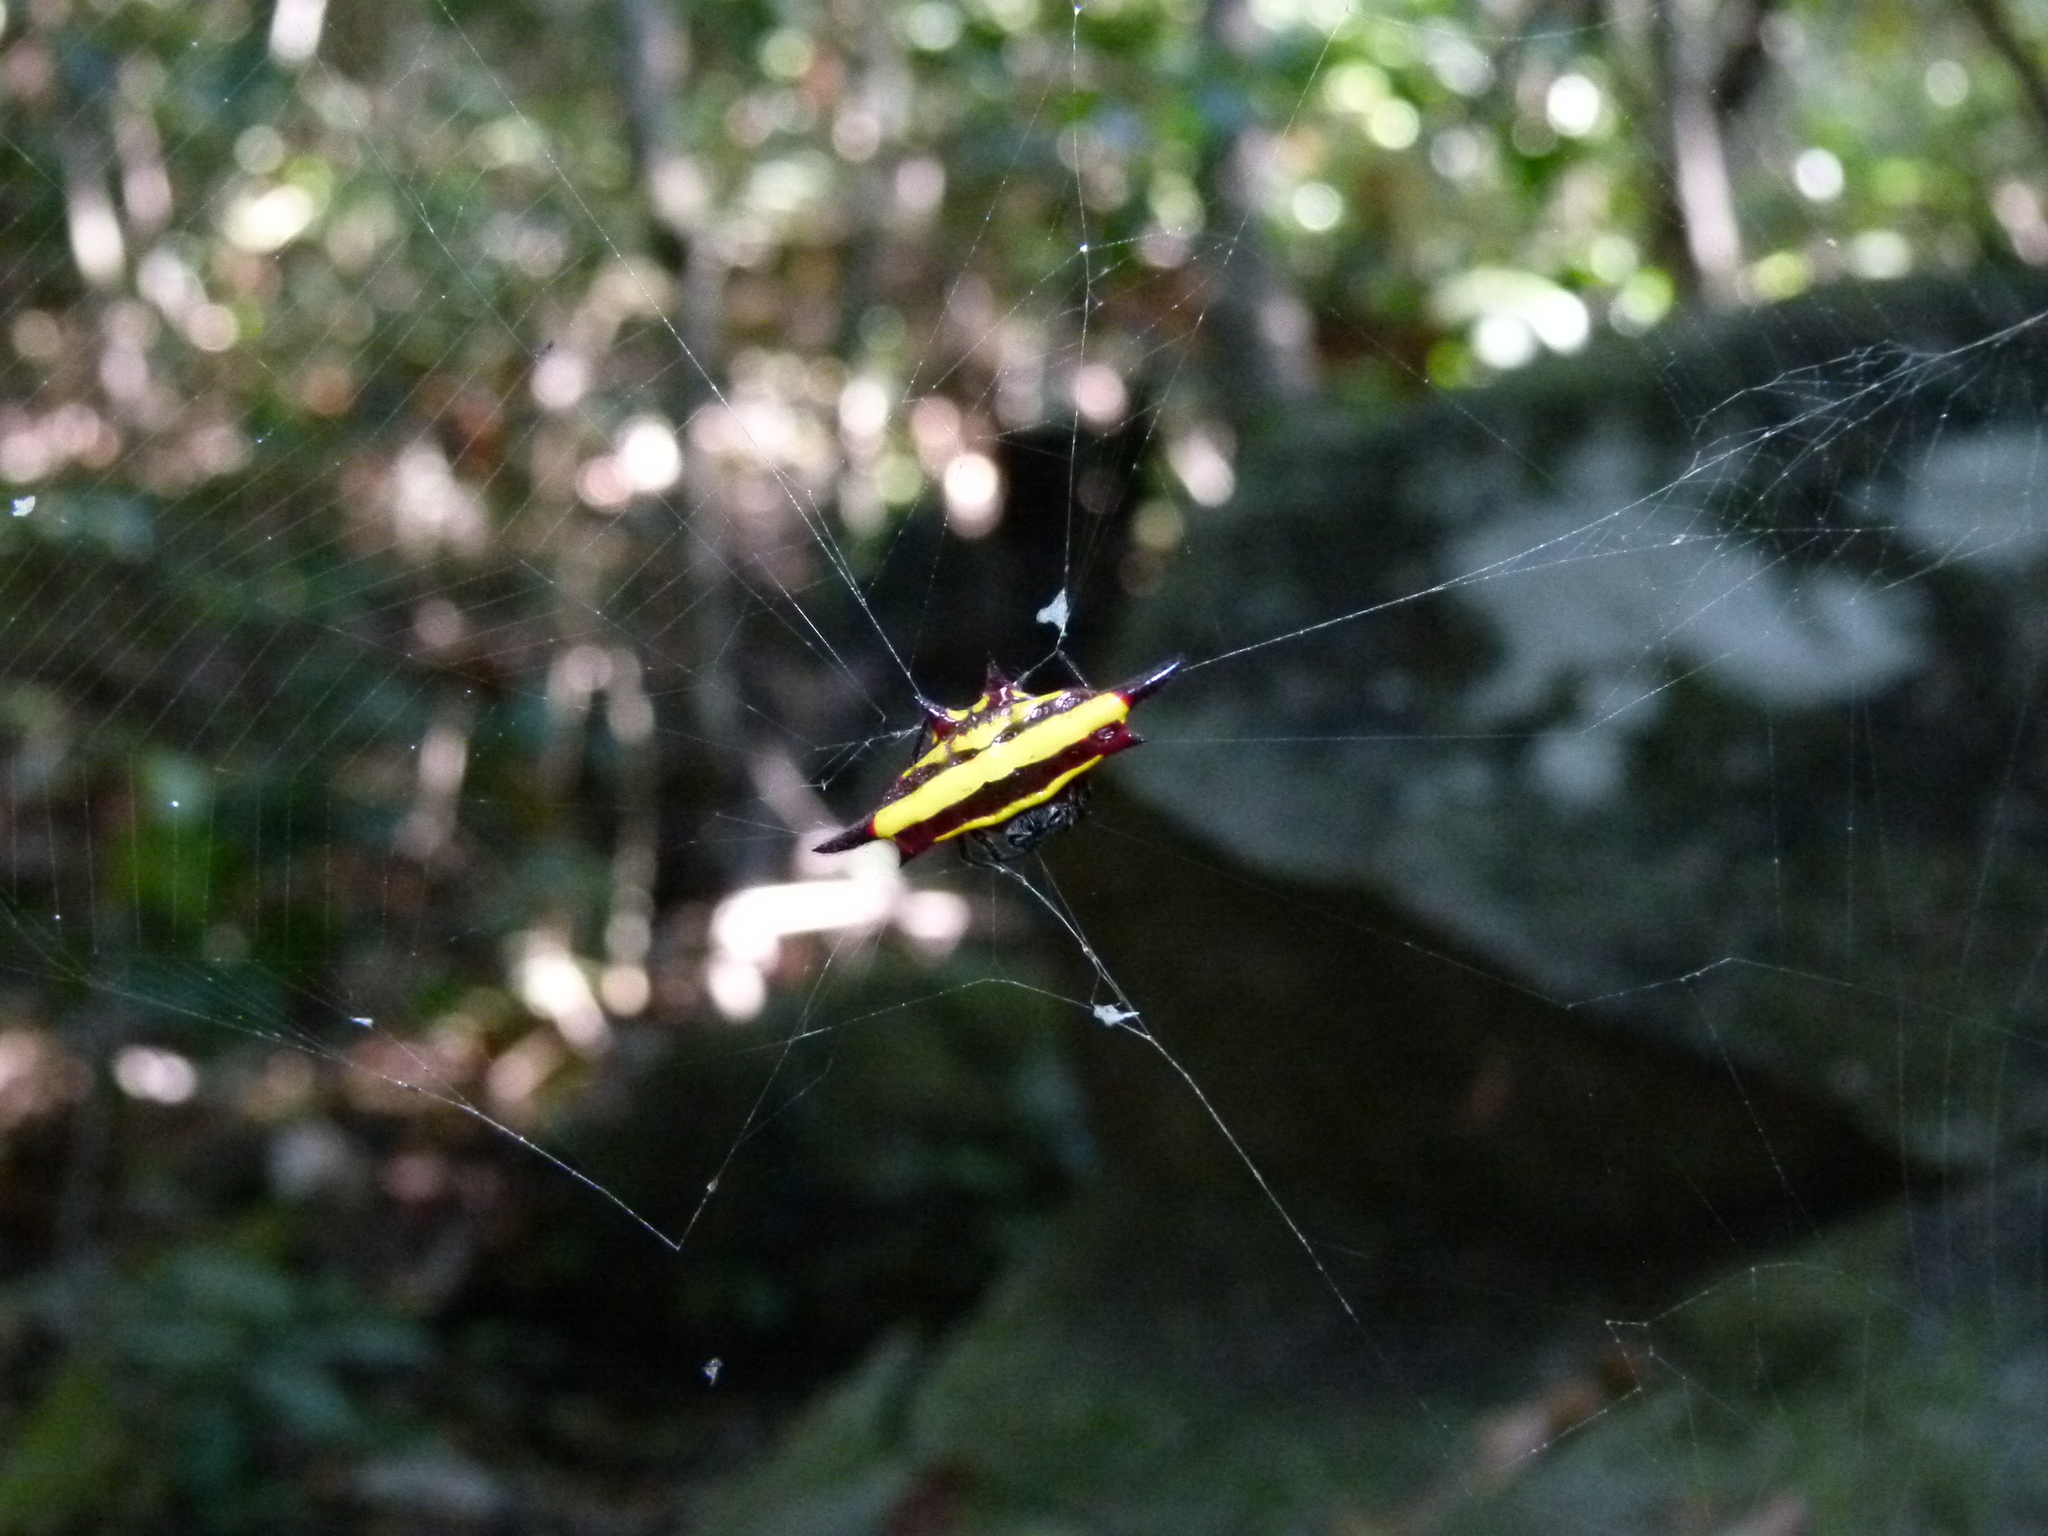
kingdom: Animalia
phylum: Arthropoda
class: Arachnida
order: Araneae
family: Araneidae
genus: Gasteracantha
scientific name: Gasteracantha fornicata
